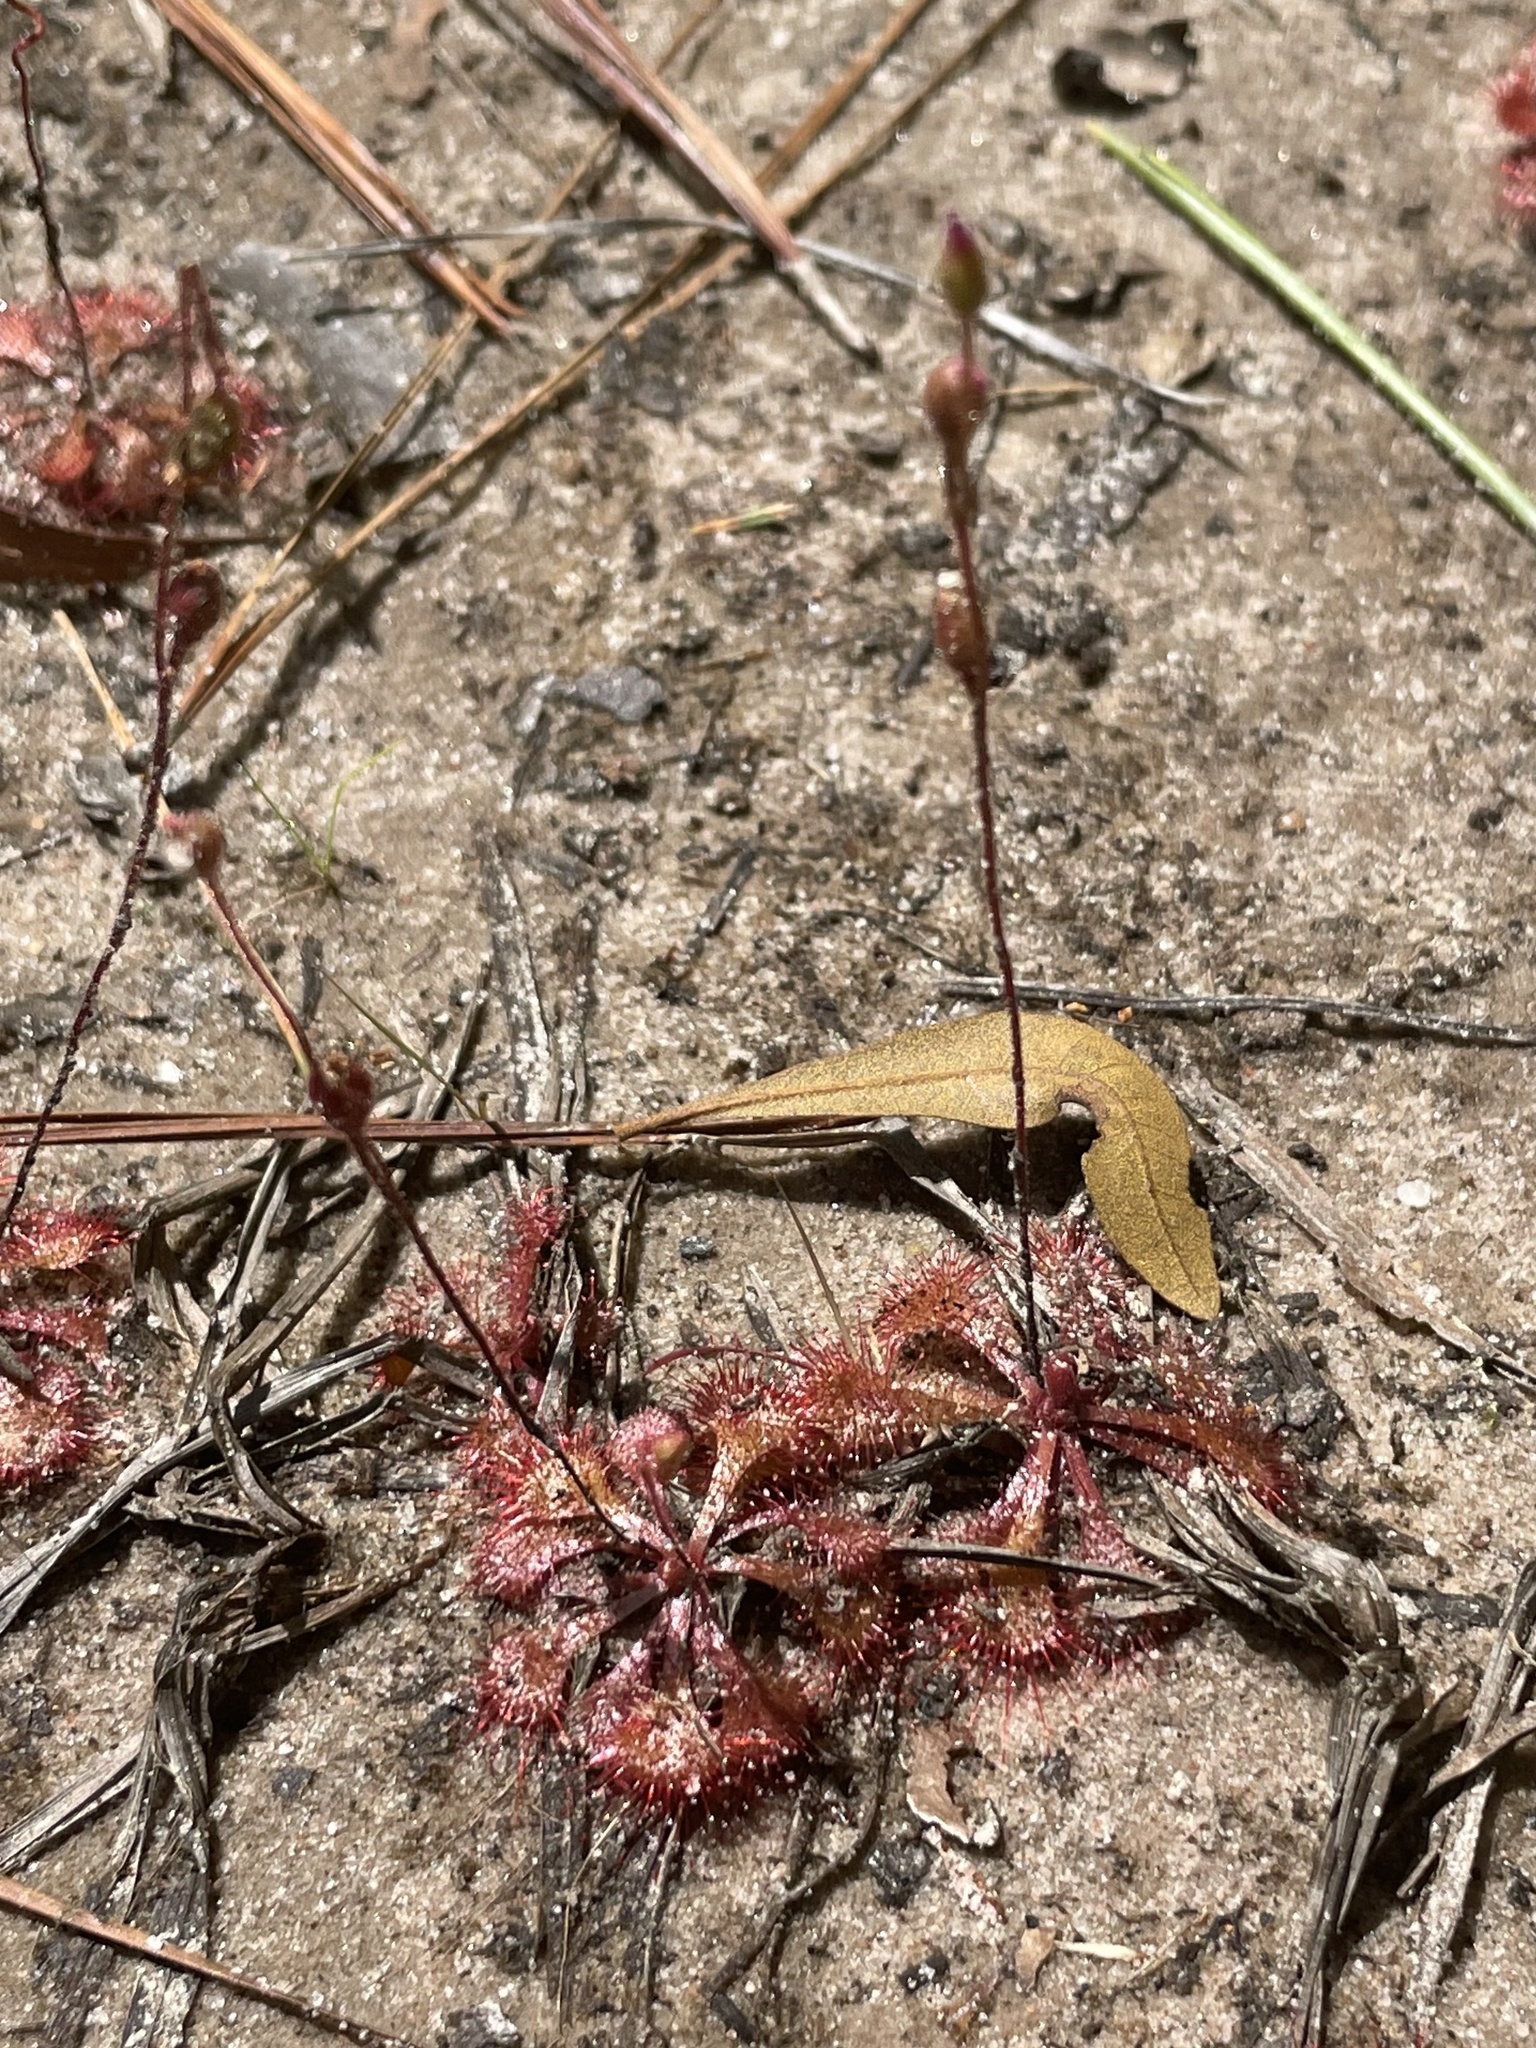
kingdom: Plantae
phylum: Tracheophyta
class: Magnoliopsida
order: Caryophyllales
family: Droseraceae
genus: Drosera
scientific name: Drosera brevifolia
